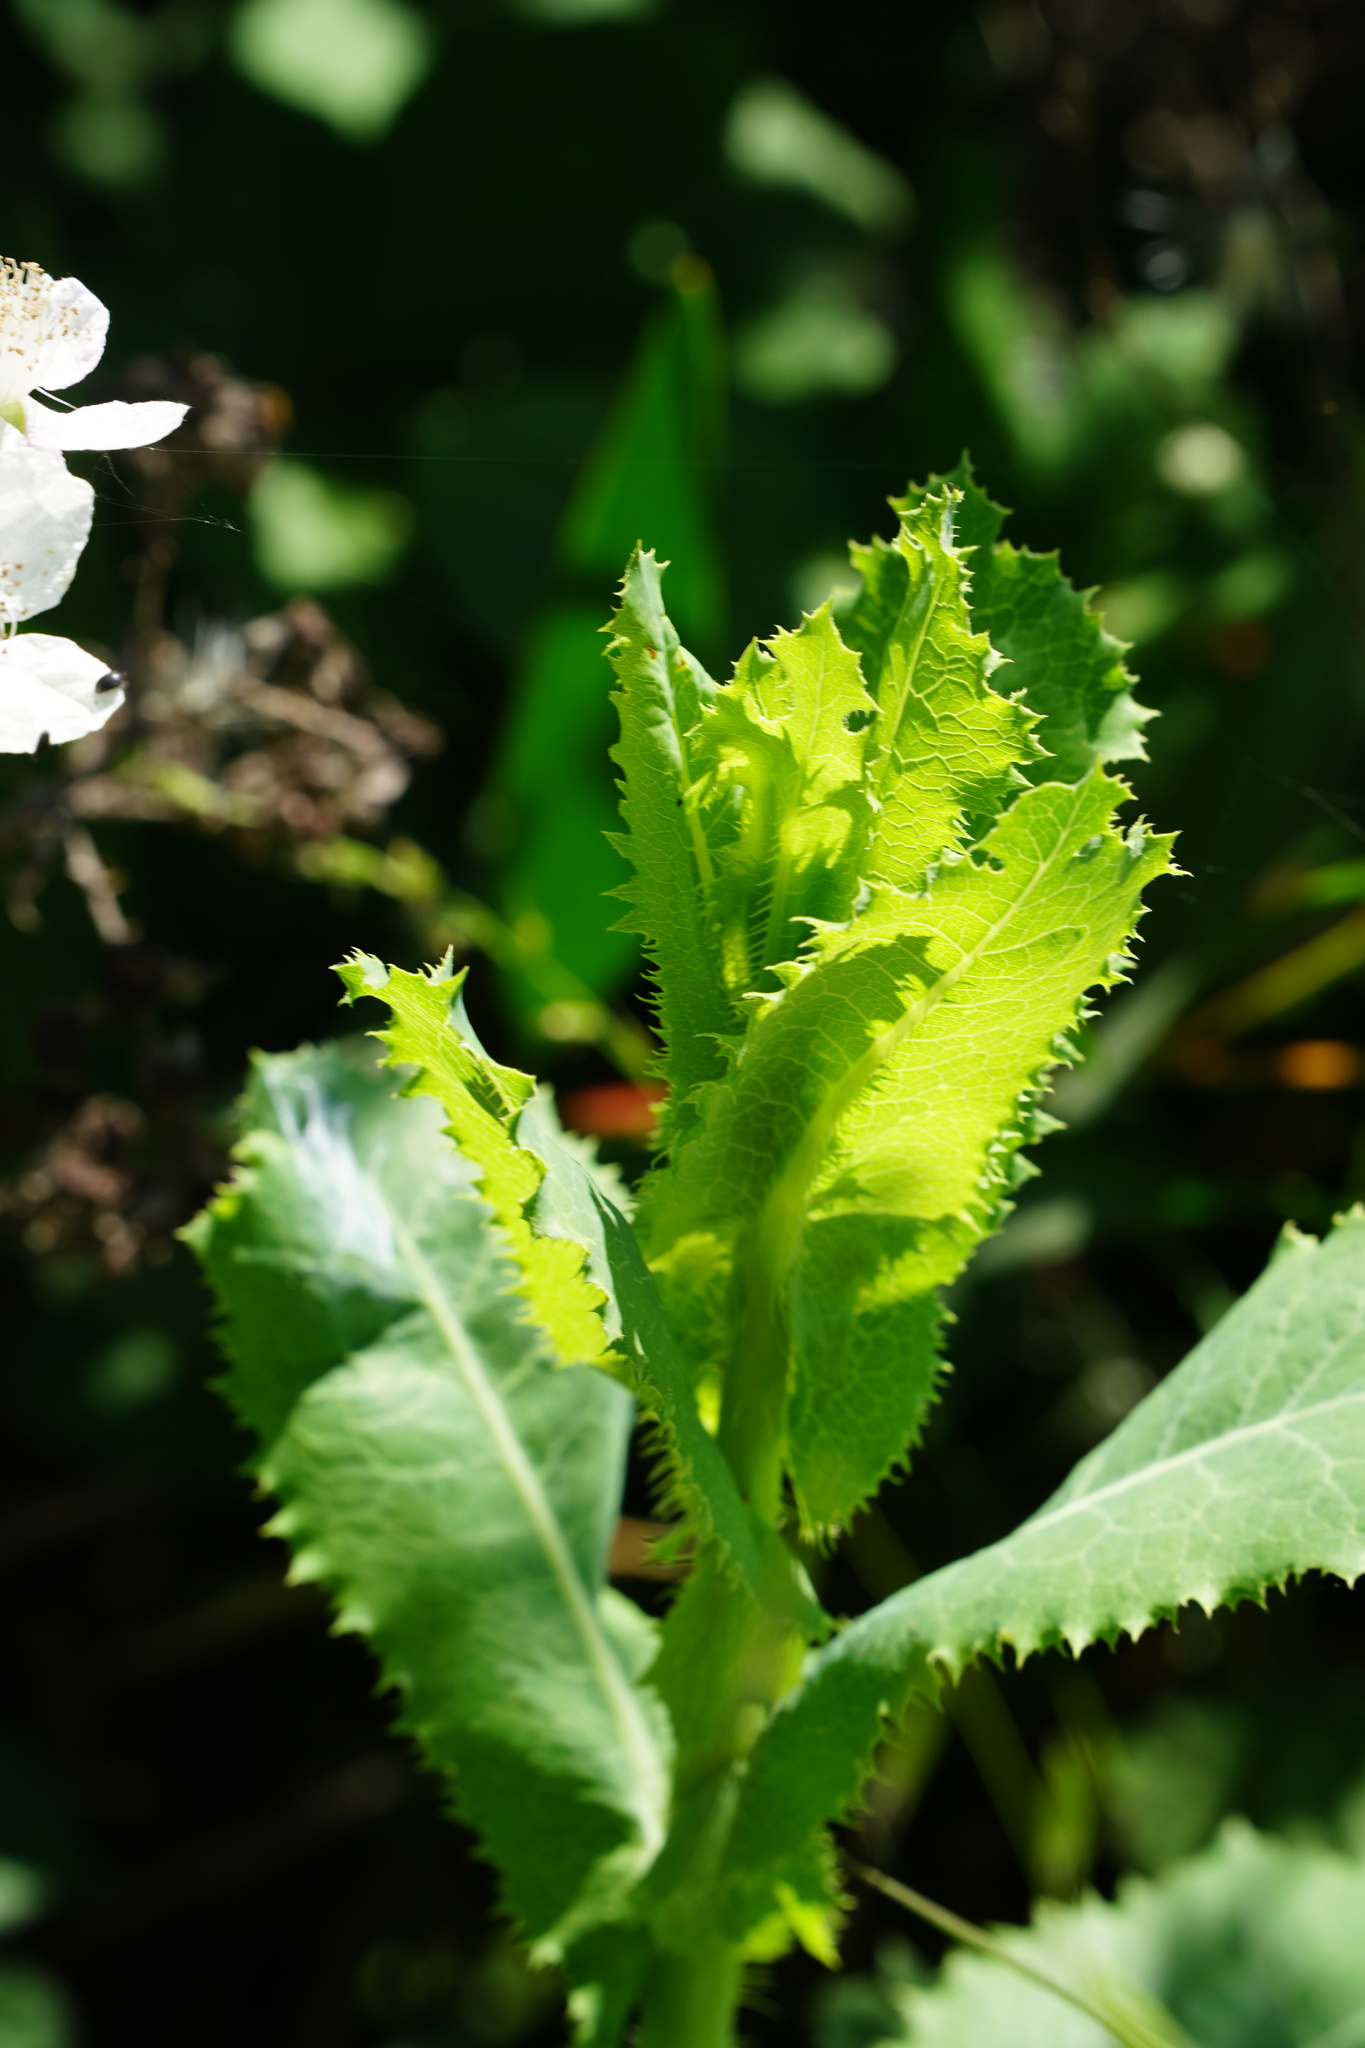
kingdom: Plantae
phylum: Tracheophyta
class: Magnoliopsida
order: Asterales
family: Asteraceae
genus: Lactuca
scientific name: Lactuca virosa
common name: Great lettuce
